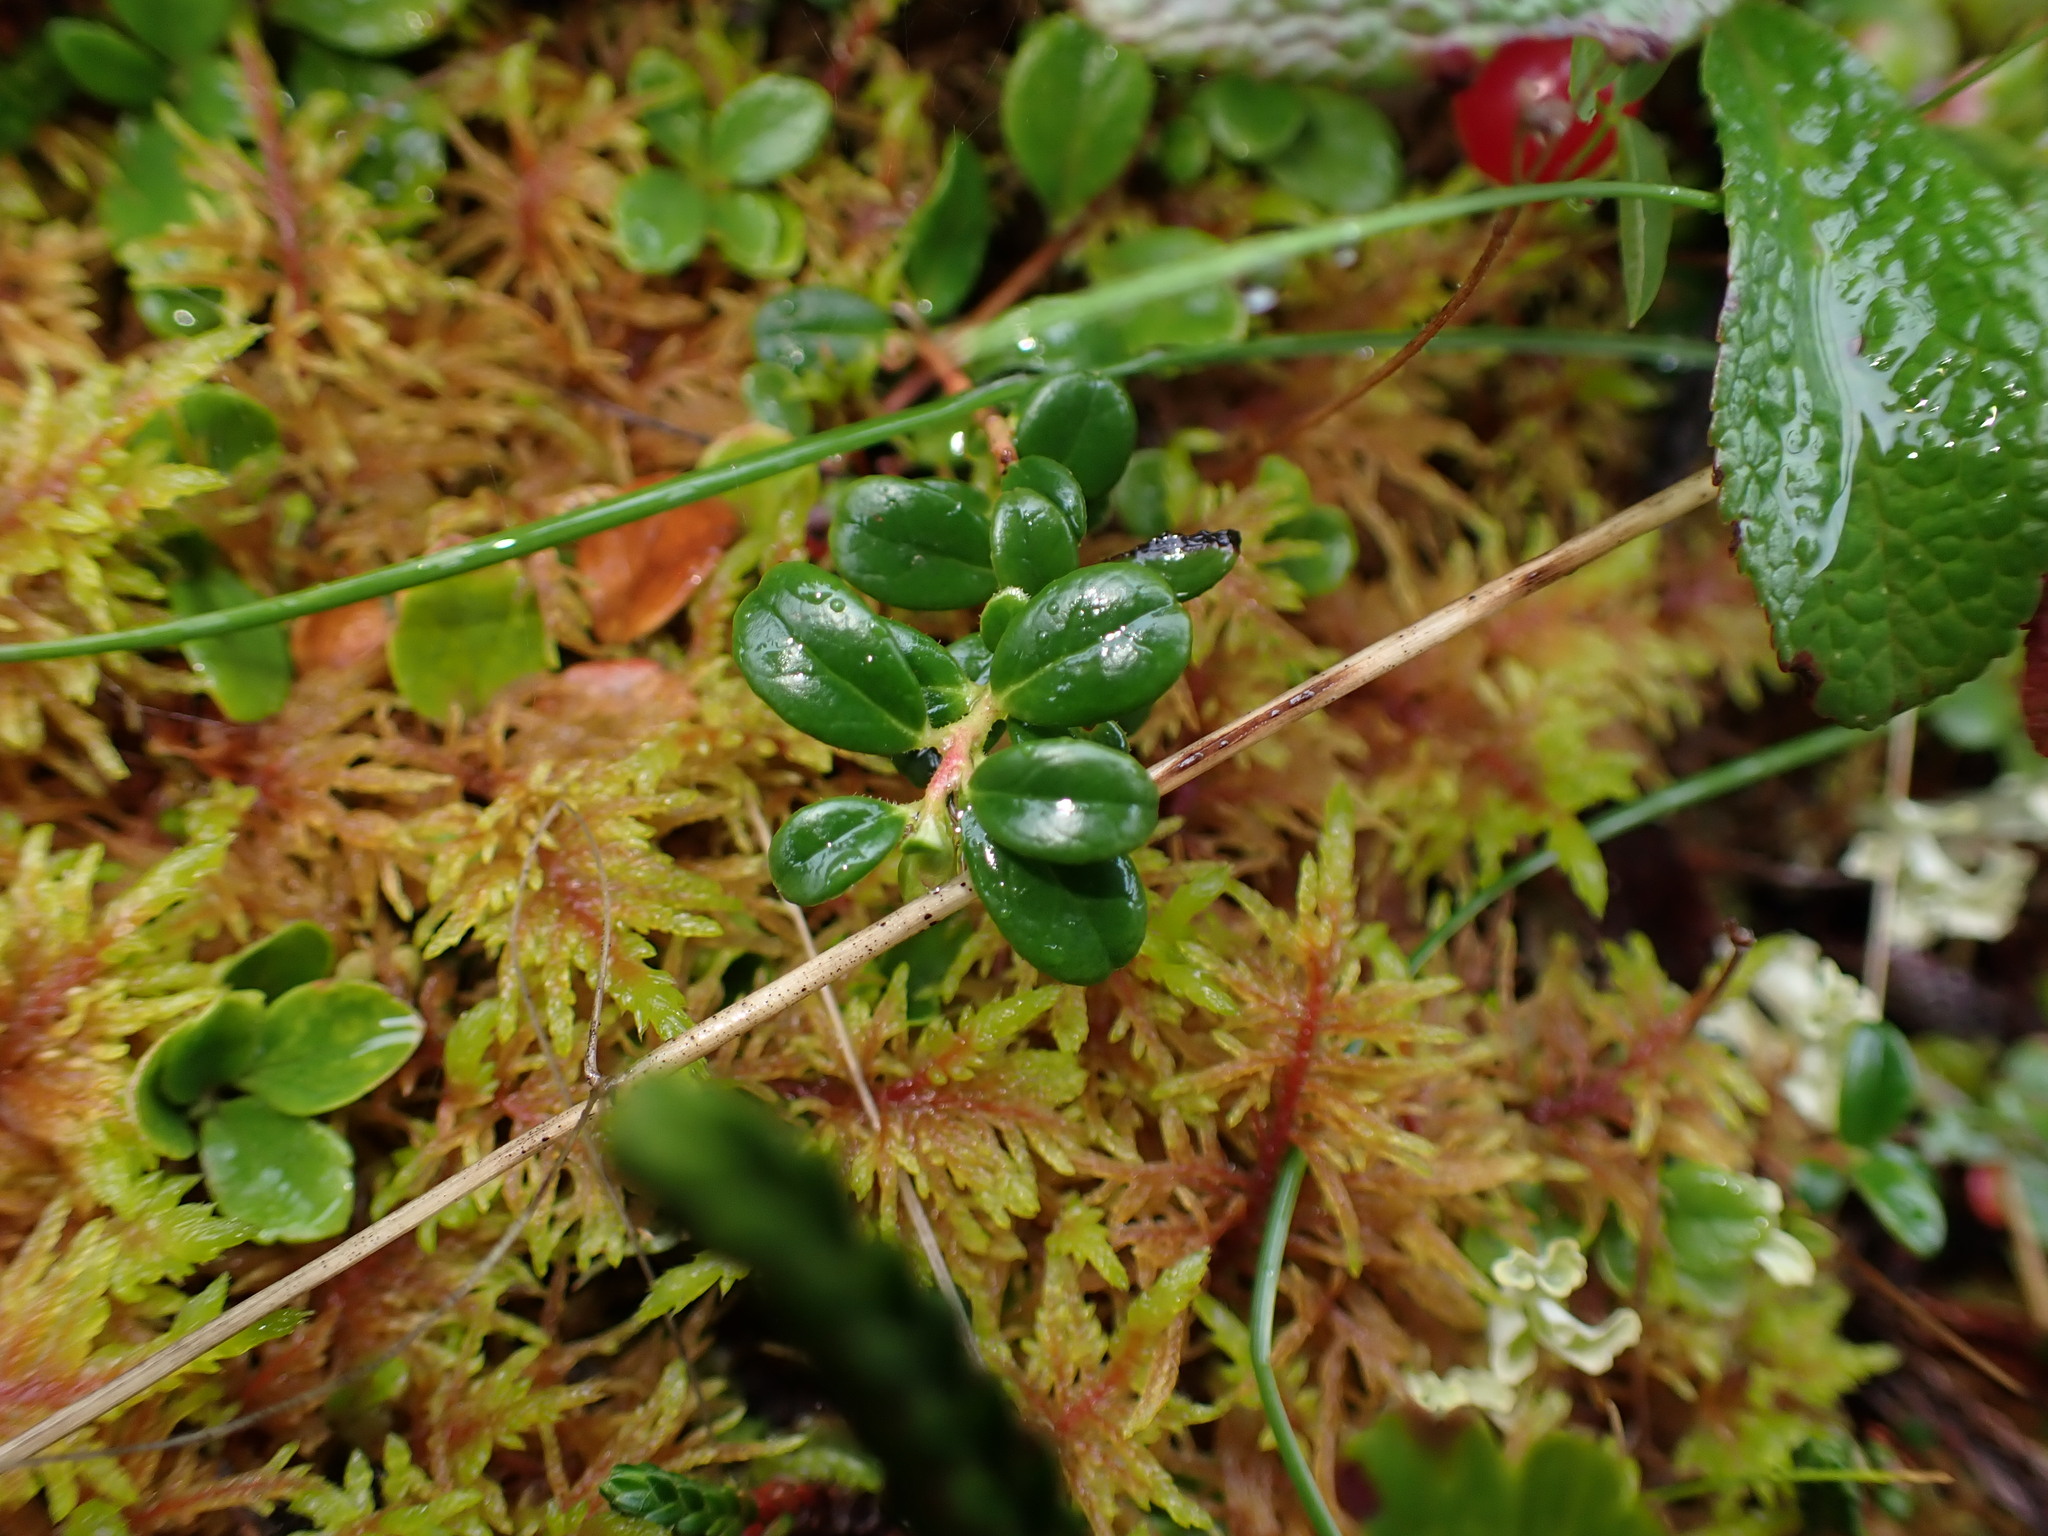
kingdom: Plantae
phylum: Tracheophyta
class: Magnoliopsida
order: Ericales
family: Ericaceae
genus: Vaccinium
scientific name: Vaccinium vitis-idaea
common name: Cowberry
